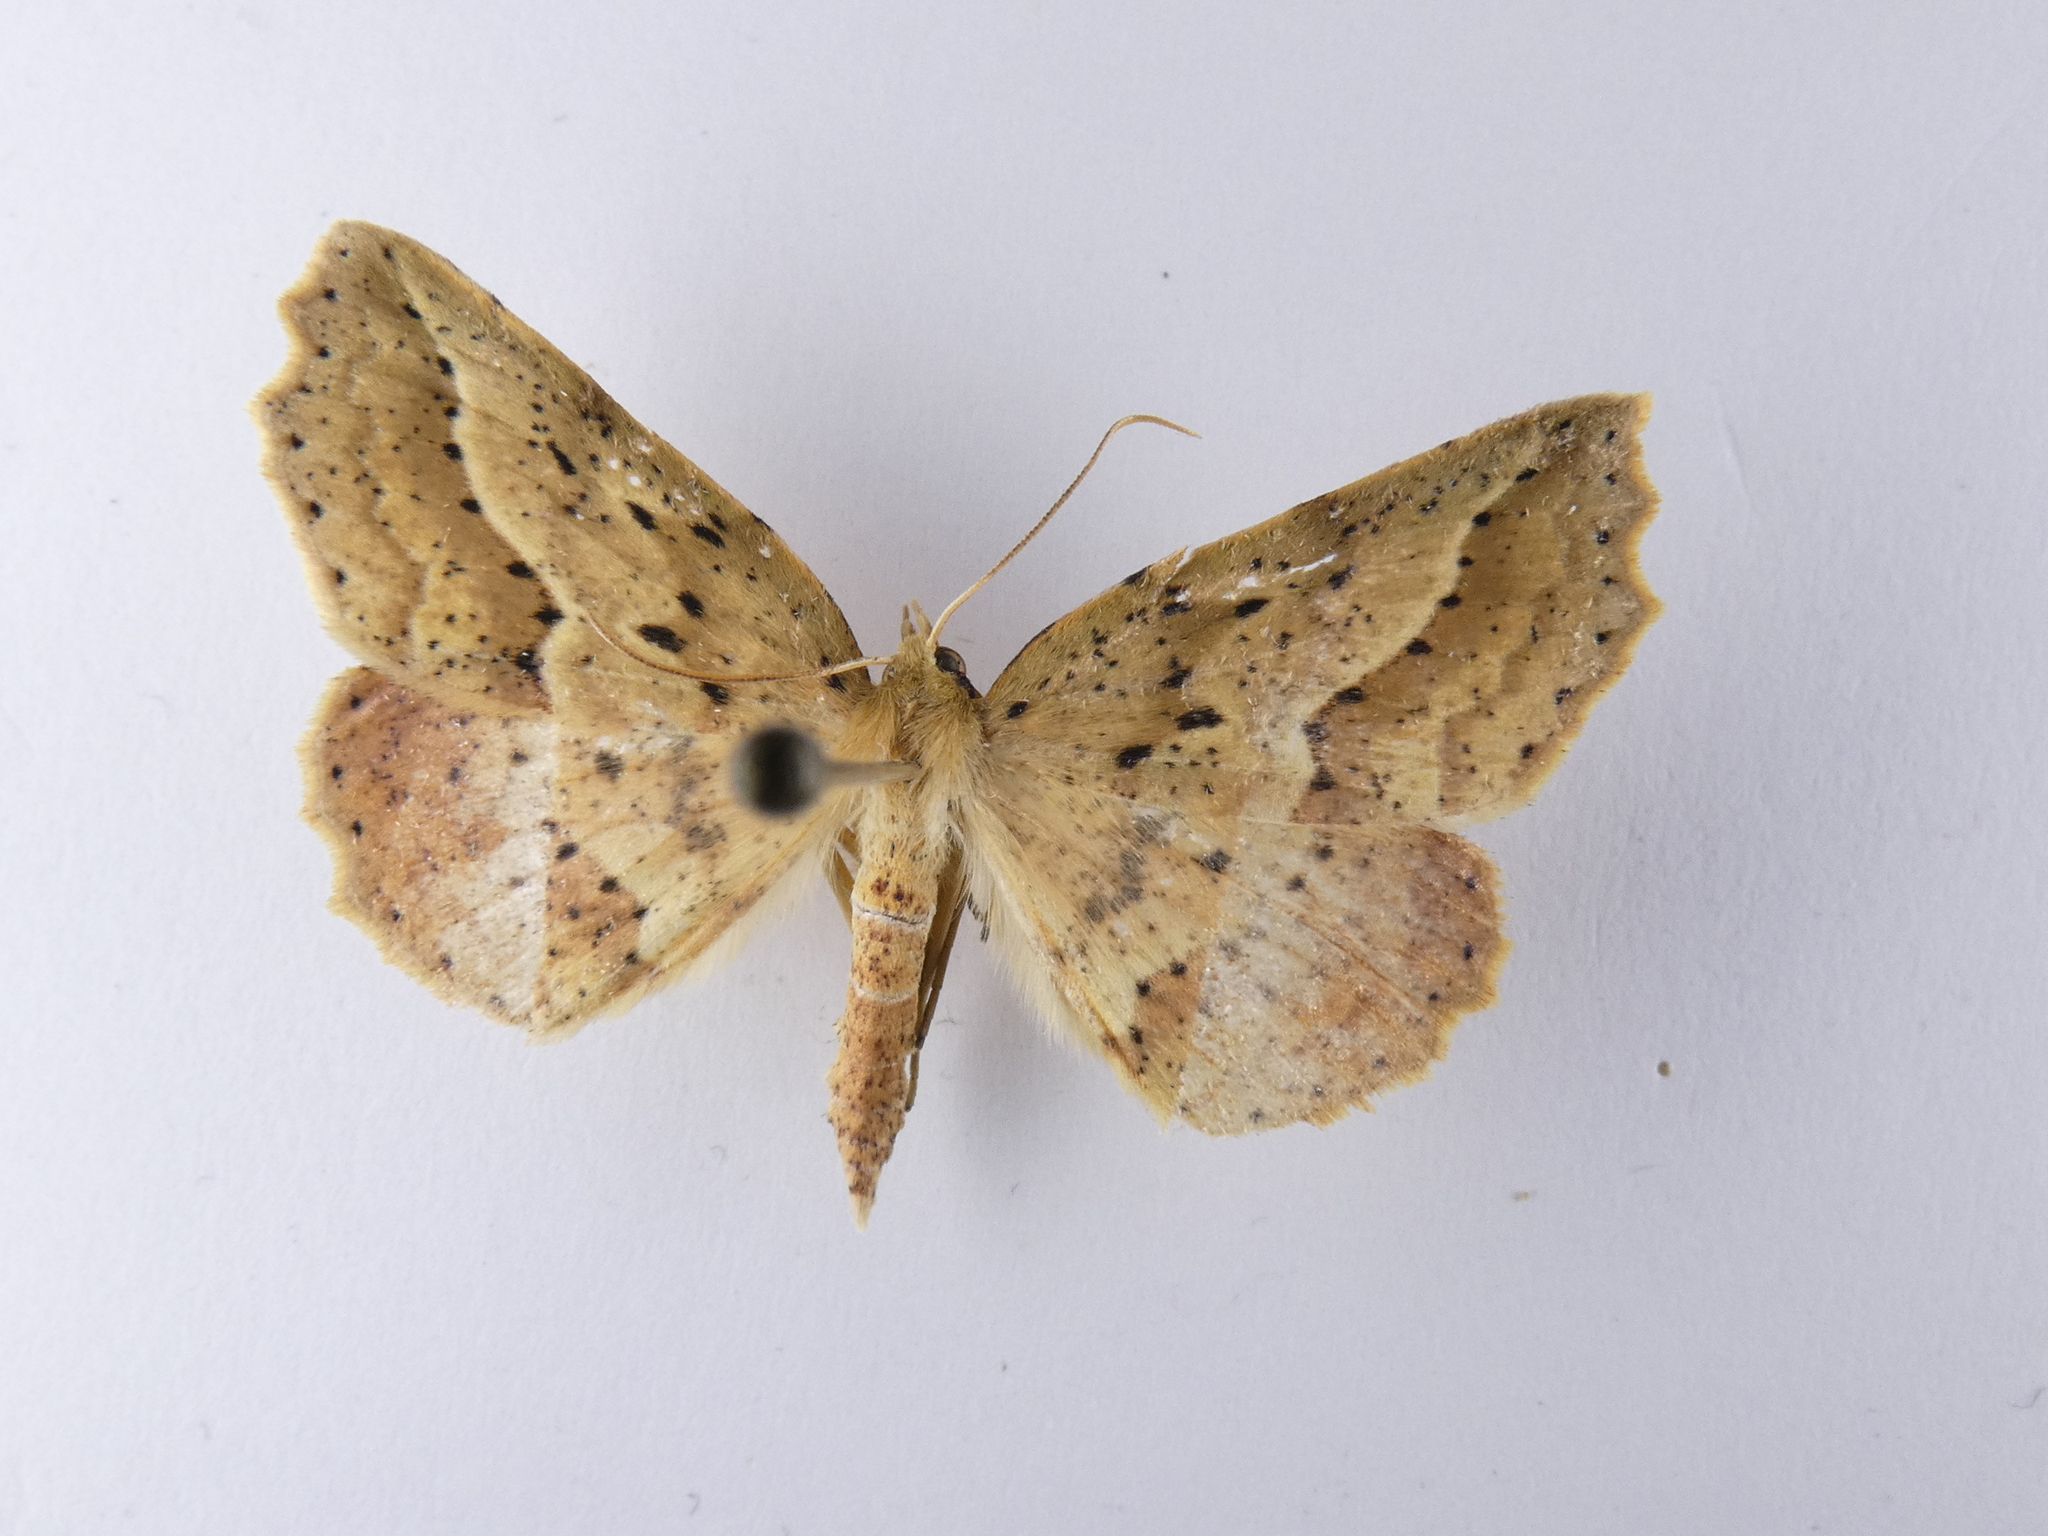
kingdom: Animalia
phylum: Arthropoda
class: Insecta
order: Lepidoptera
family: Geometridae
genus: Ischalis
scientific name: Ischalis variabilis
